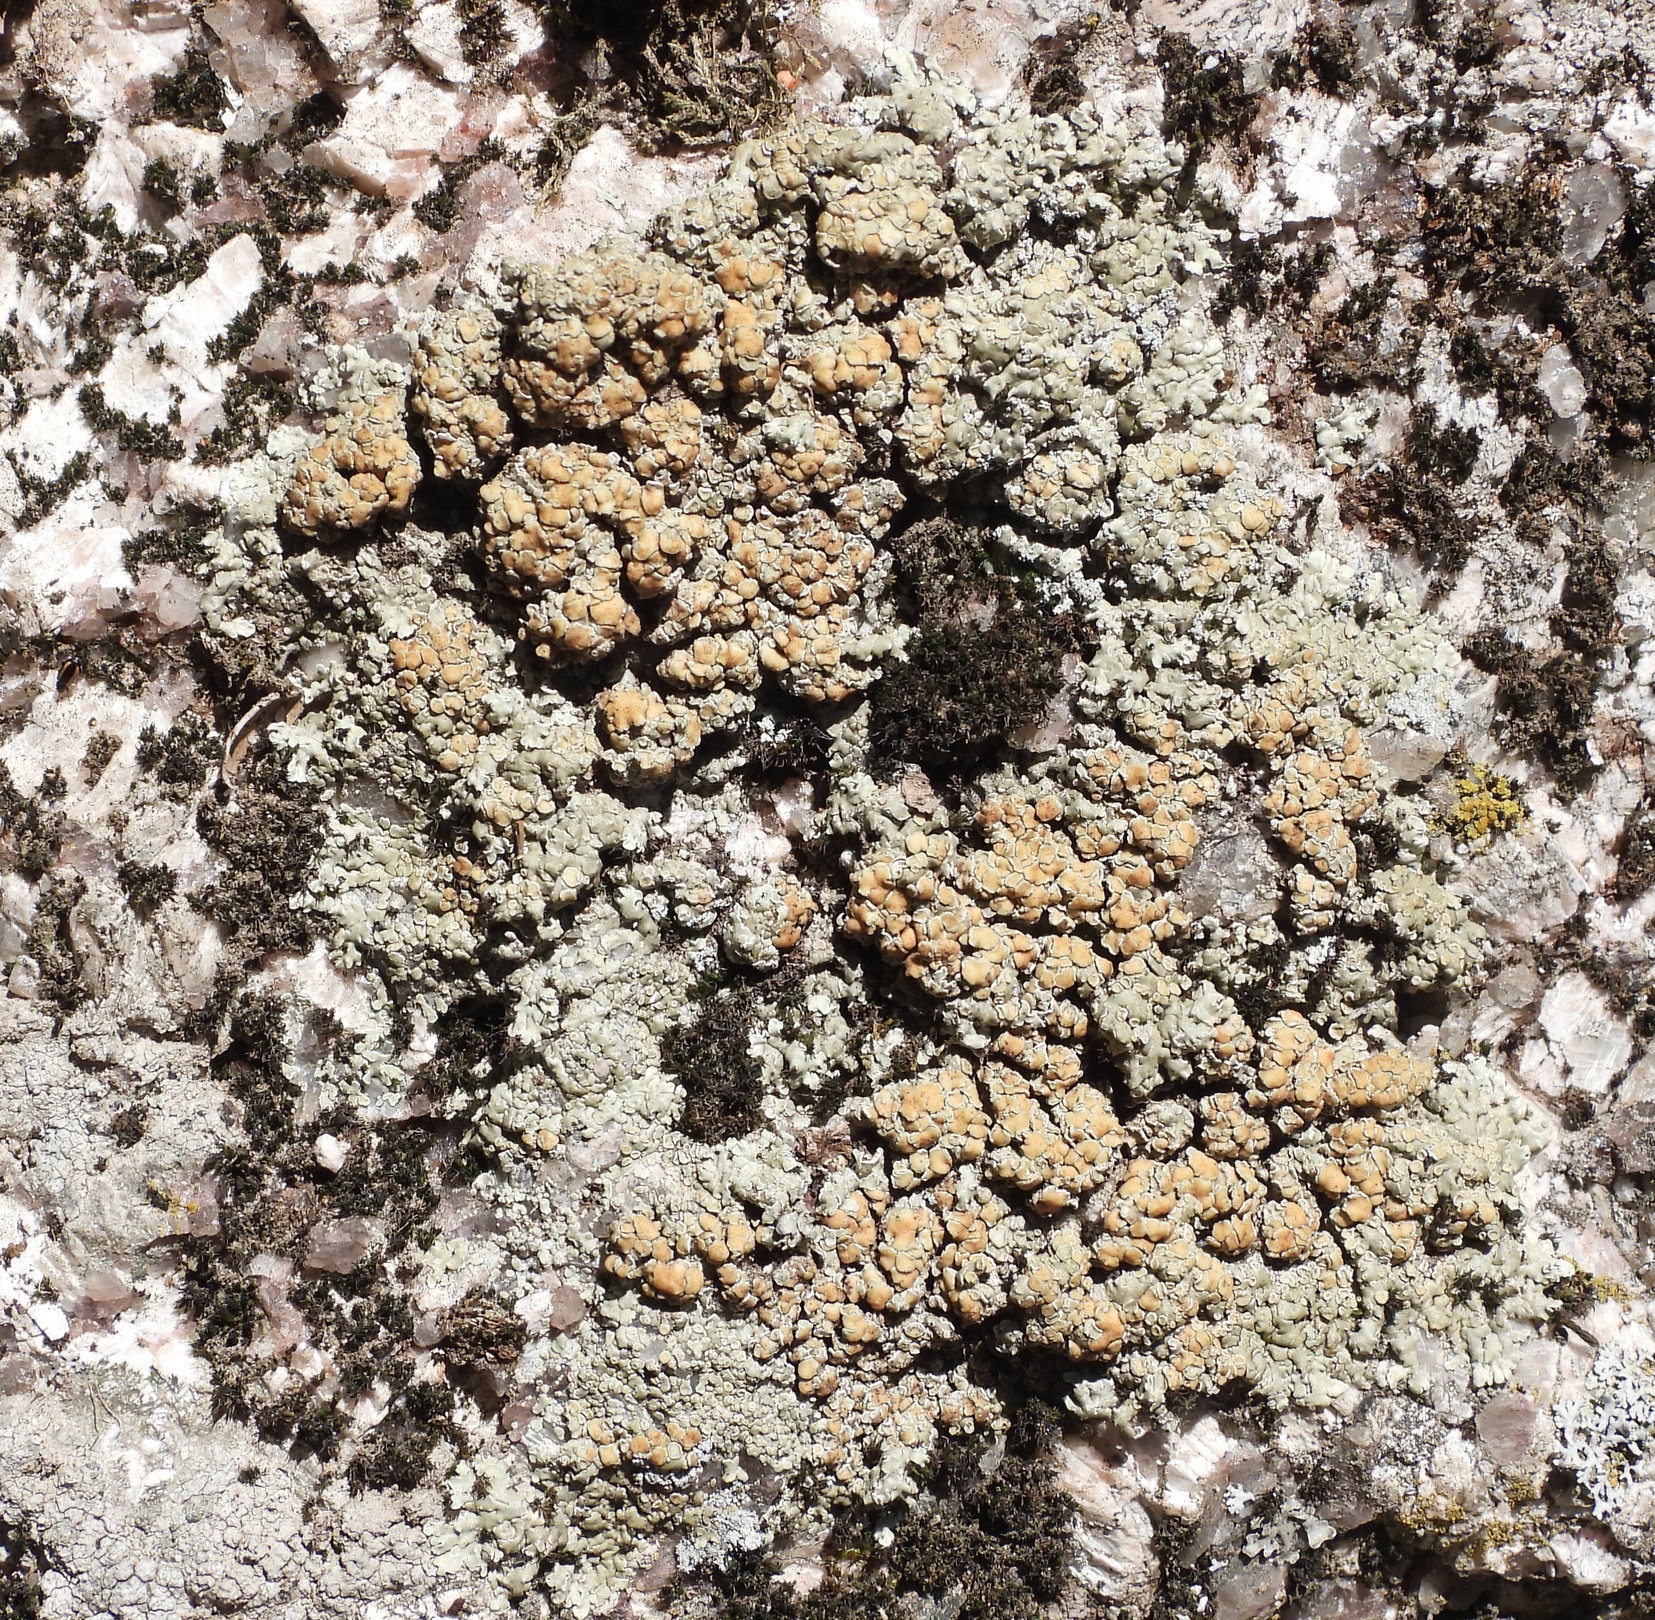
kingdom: Fungi
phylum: Ascomycota
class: Lecanoromycetes
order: Lecanorales
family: Lecanoraceae
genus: Protoparmeliopsis
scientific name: Protoparmeliopsis muralis
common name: Stonewall rim lichen
